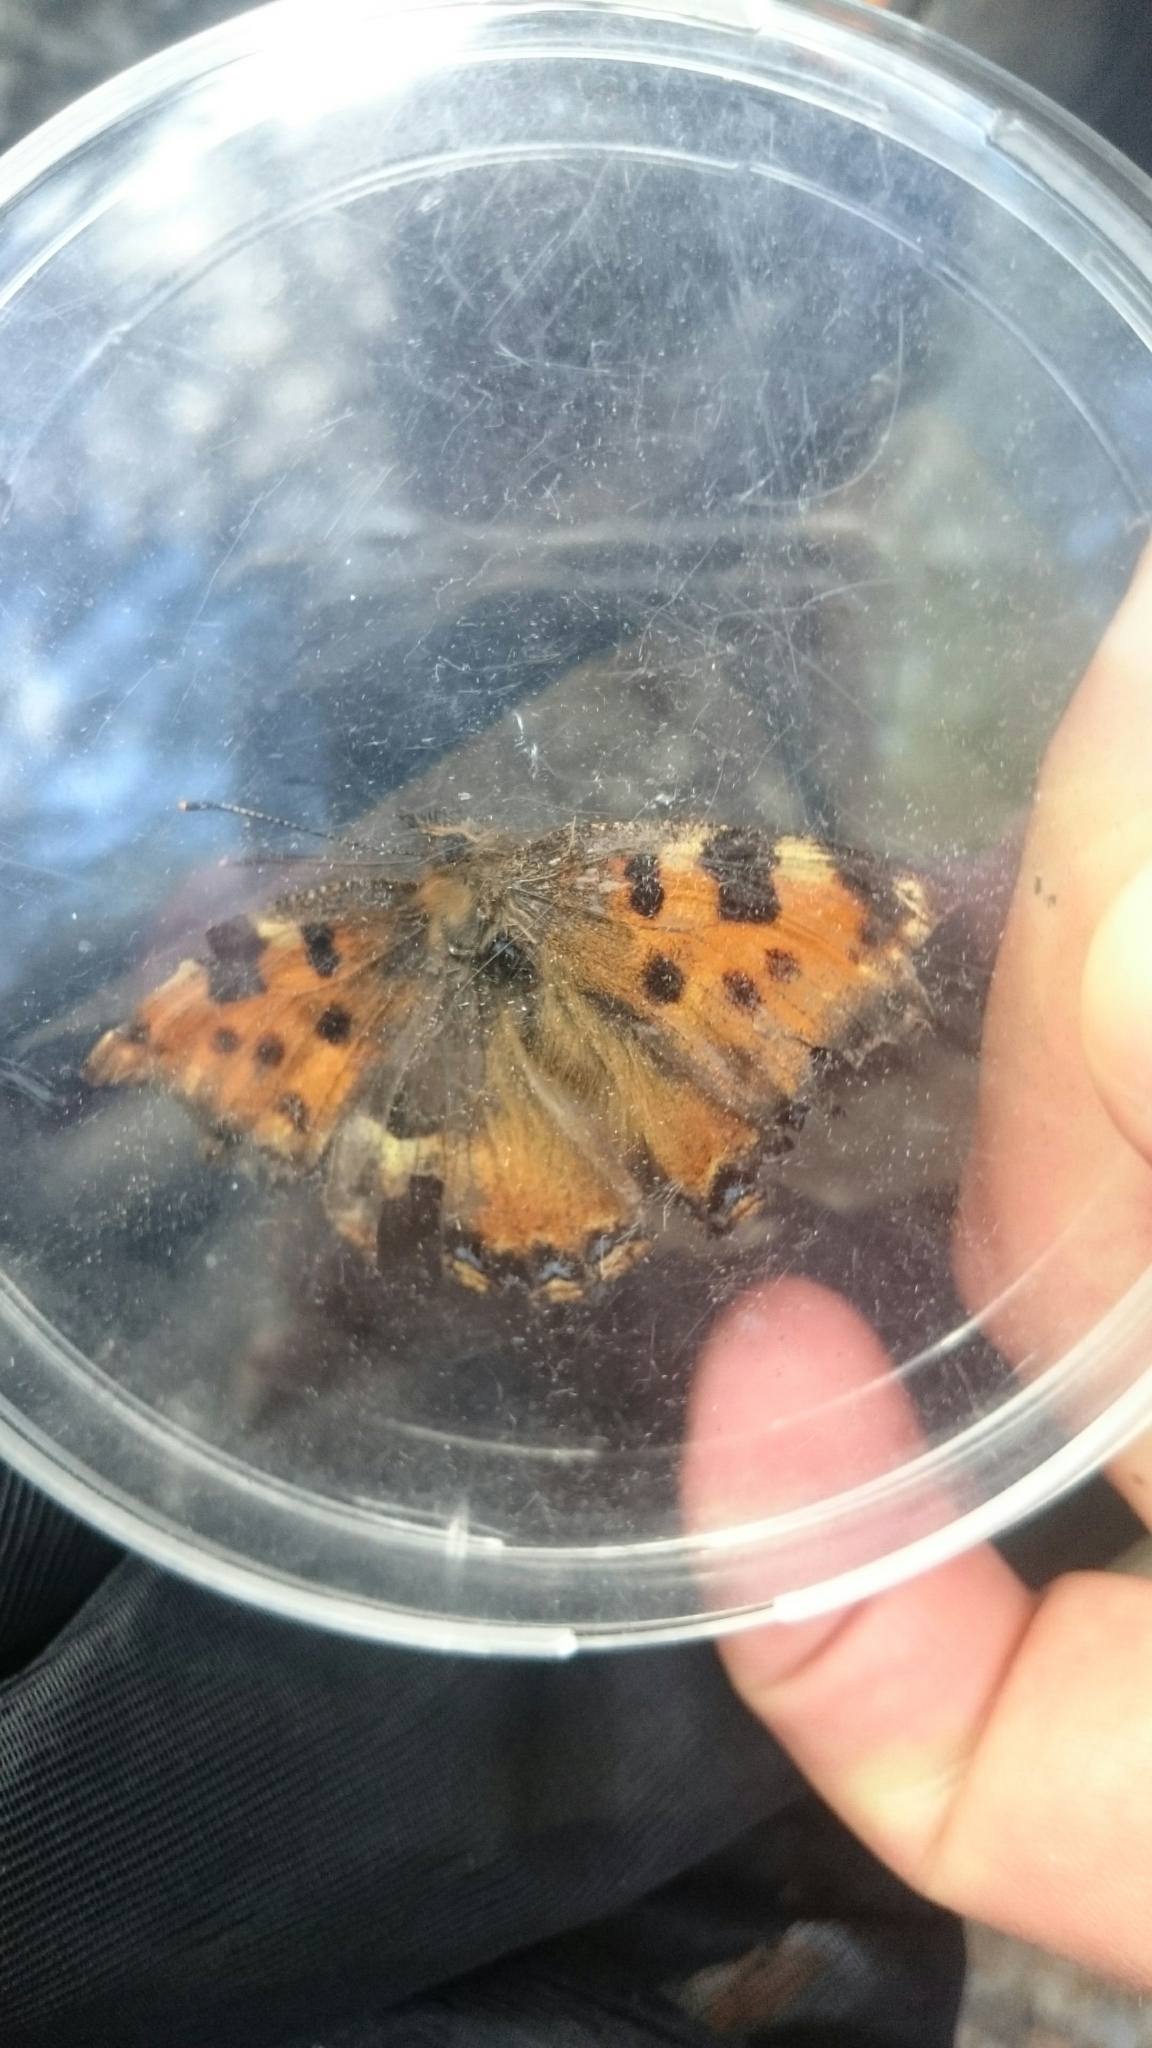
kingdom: Animalia
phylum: Arthropoda
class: Insecta
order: Lepidoptera
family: Nymphalidae
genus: Nymphalis
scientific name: Nymphalis polychloros
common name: Large tortoiseshell
